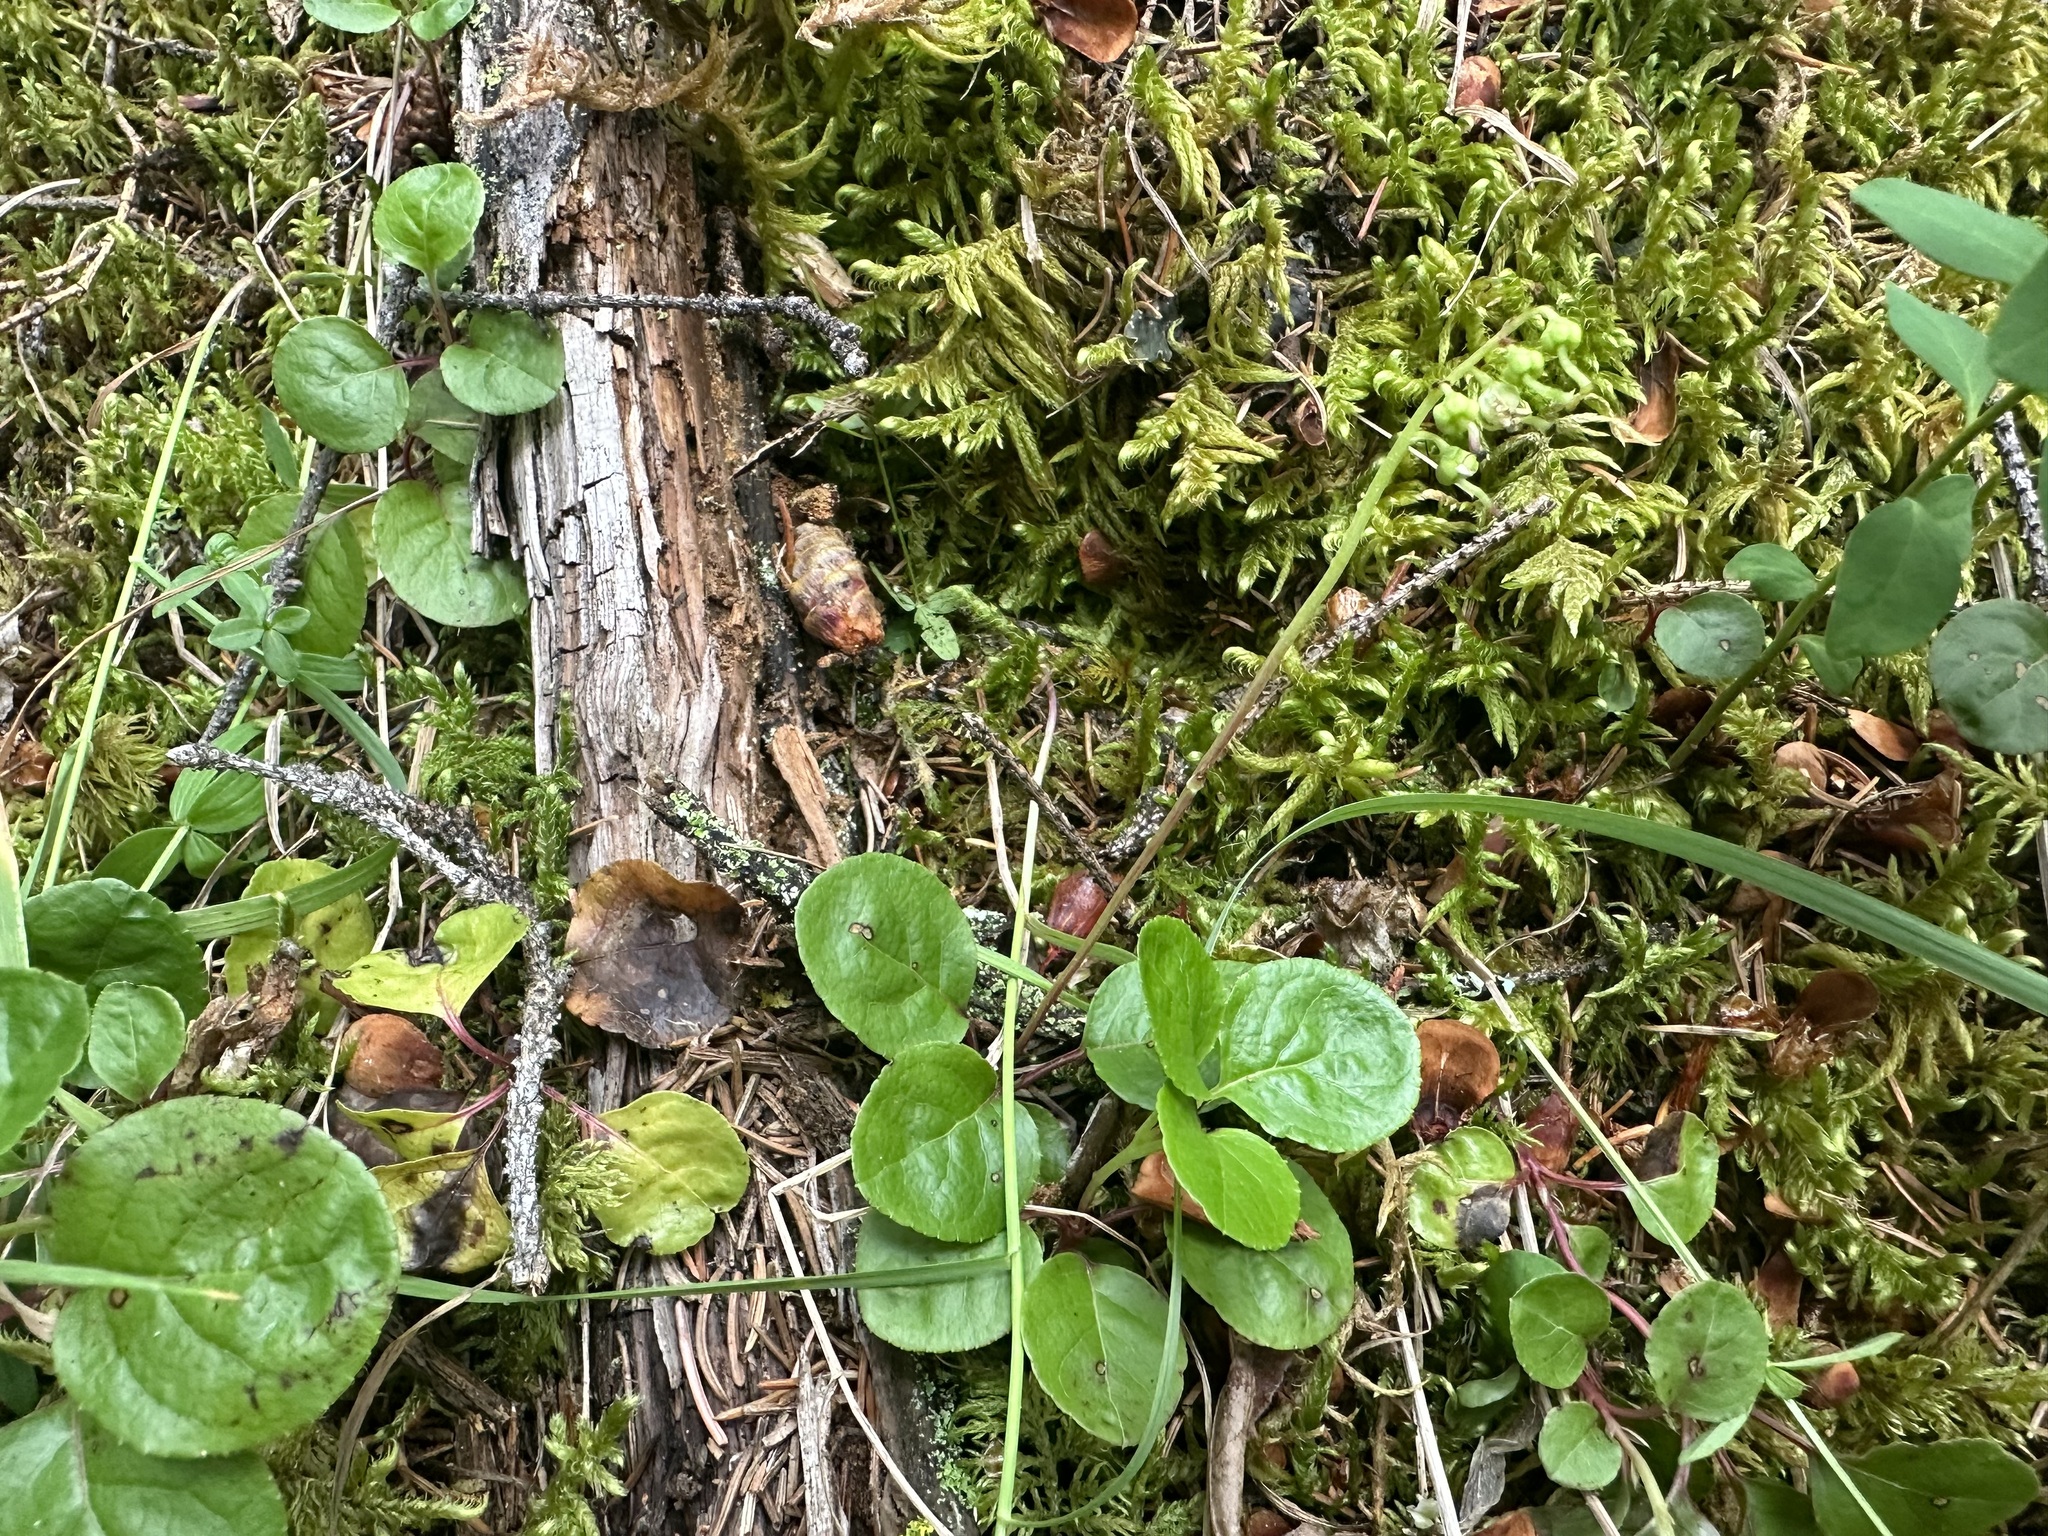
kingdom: Plantae
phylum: Tracheophyta
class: Magnoliopsida
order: Ericales
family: Ericaceae
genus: Orthilia
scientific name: Orthilia secunda
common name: One-sided orthilia
